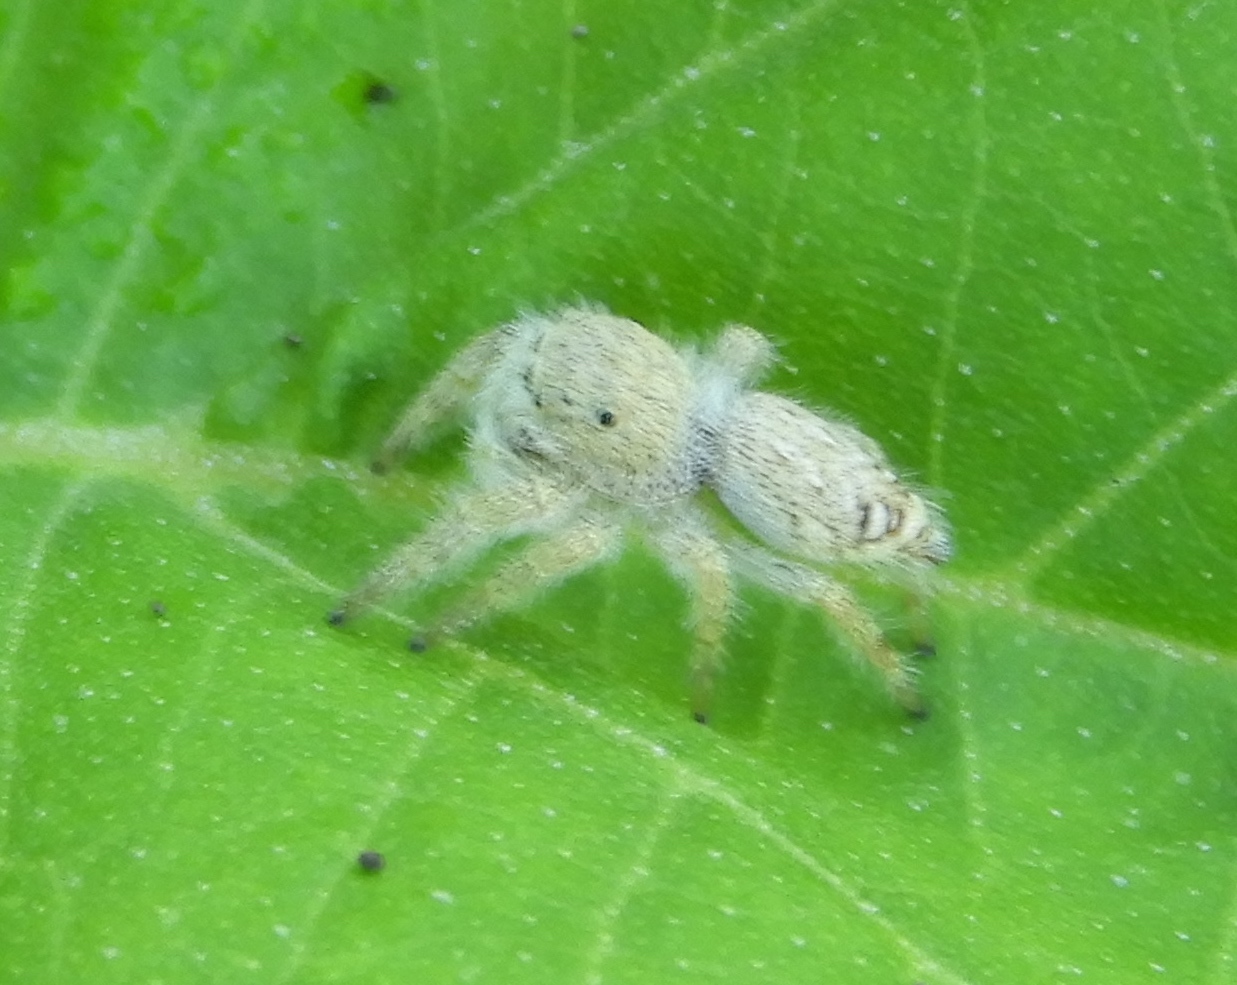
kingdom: Animalia
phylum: Arthropoda
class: Arachnida
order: Araneae
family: Salticidae
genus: Paraphidippus
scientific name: Paraphidippus fartilis
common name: Jumping spiders
